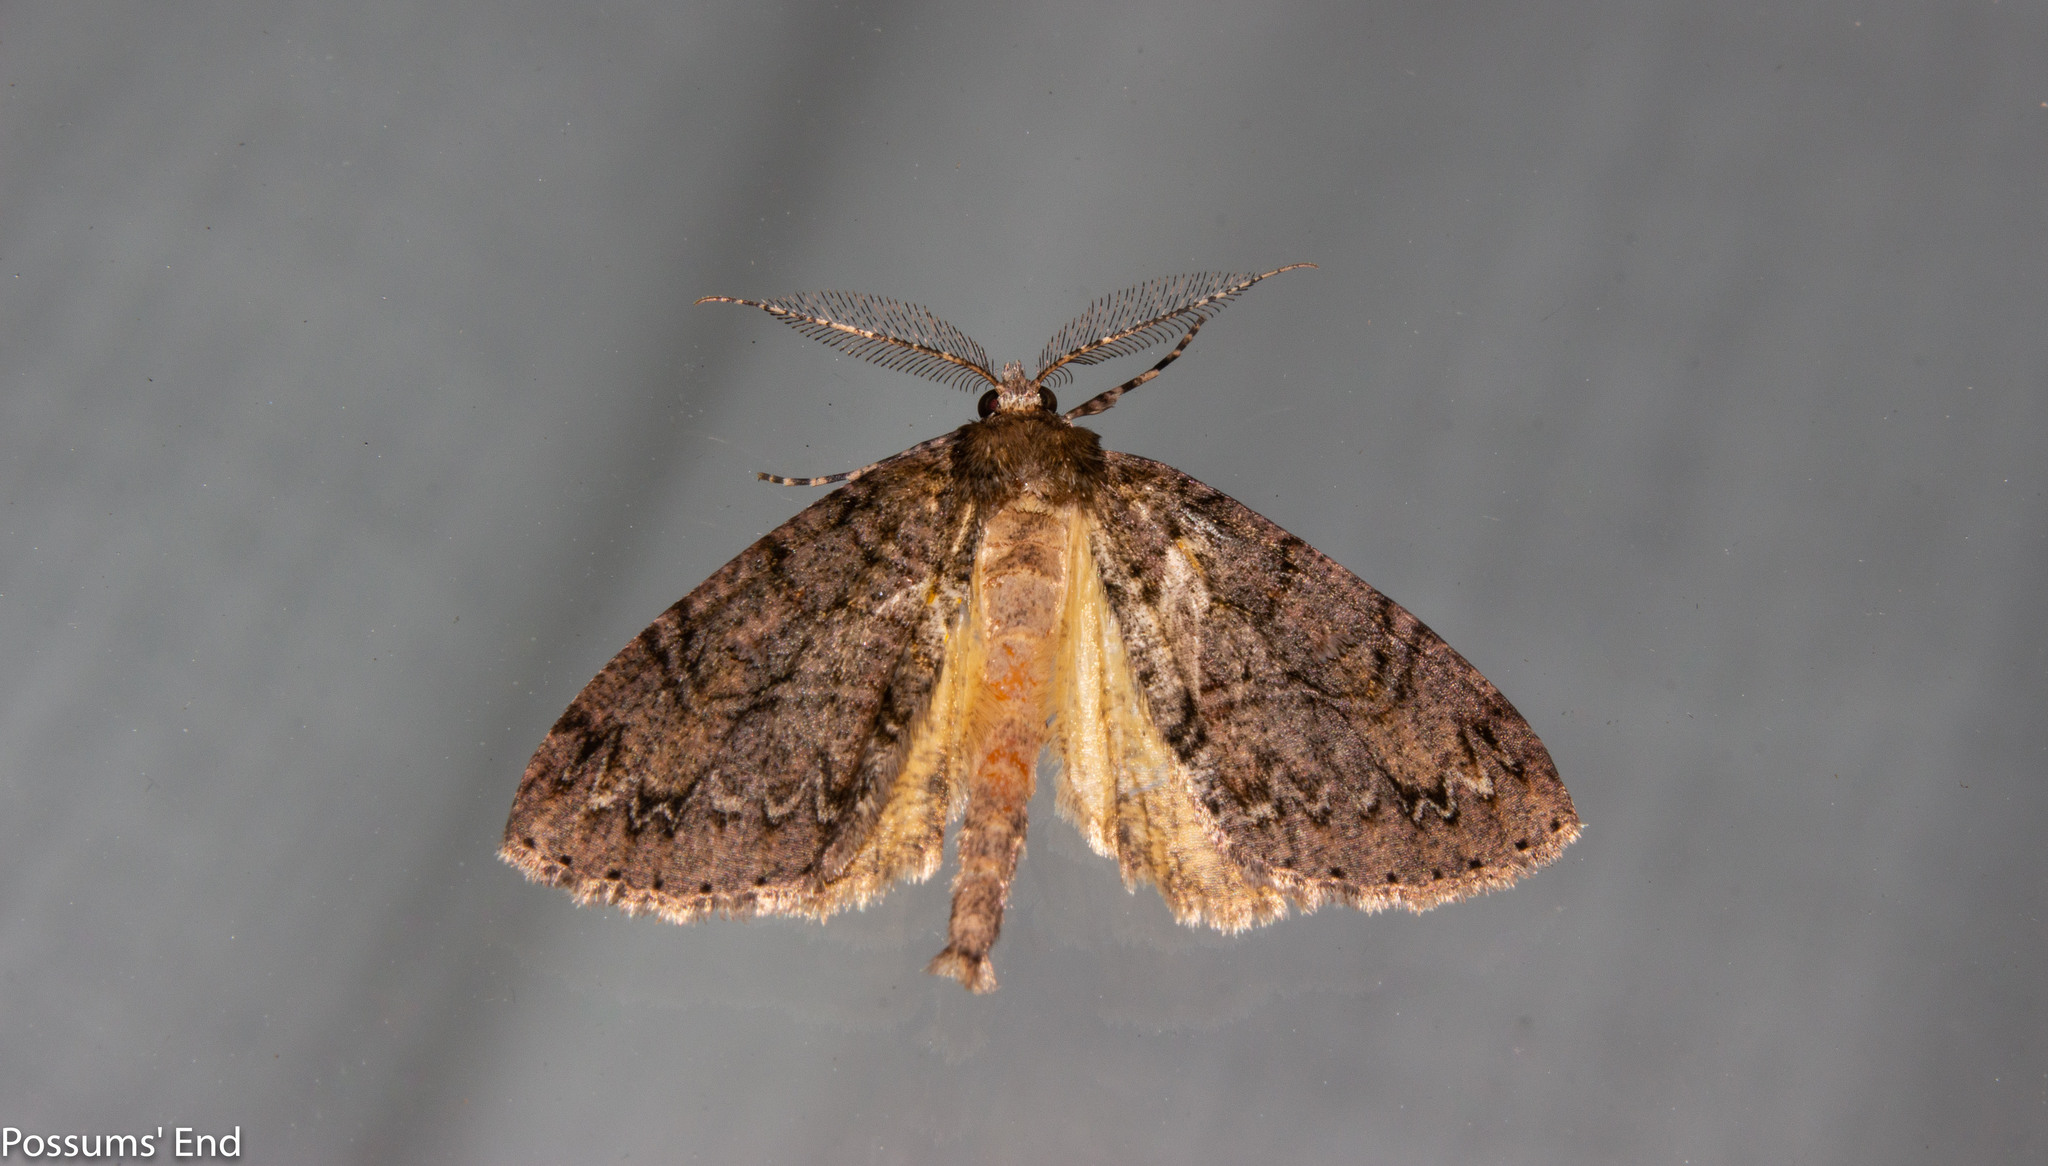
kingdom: Animalia
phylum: Arthropoda
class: Insecta
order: Lepidoptera
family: Geometridae
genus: Pseudocoremia
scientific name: Pseudocoremia suavis
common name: Common forest looper
